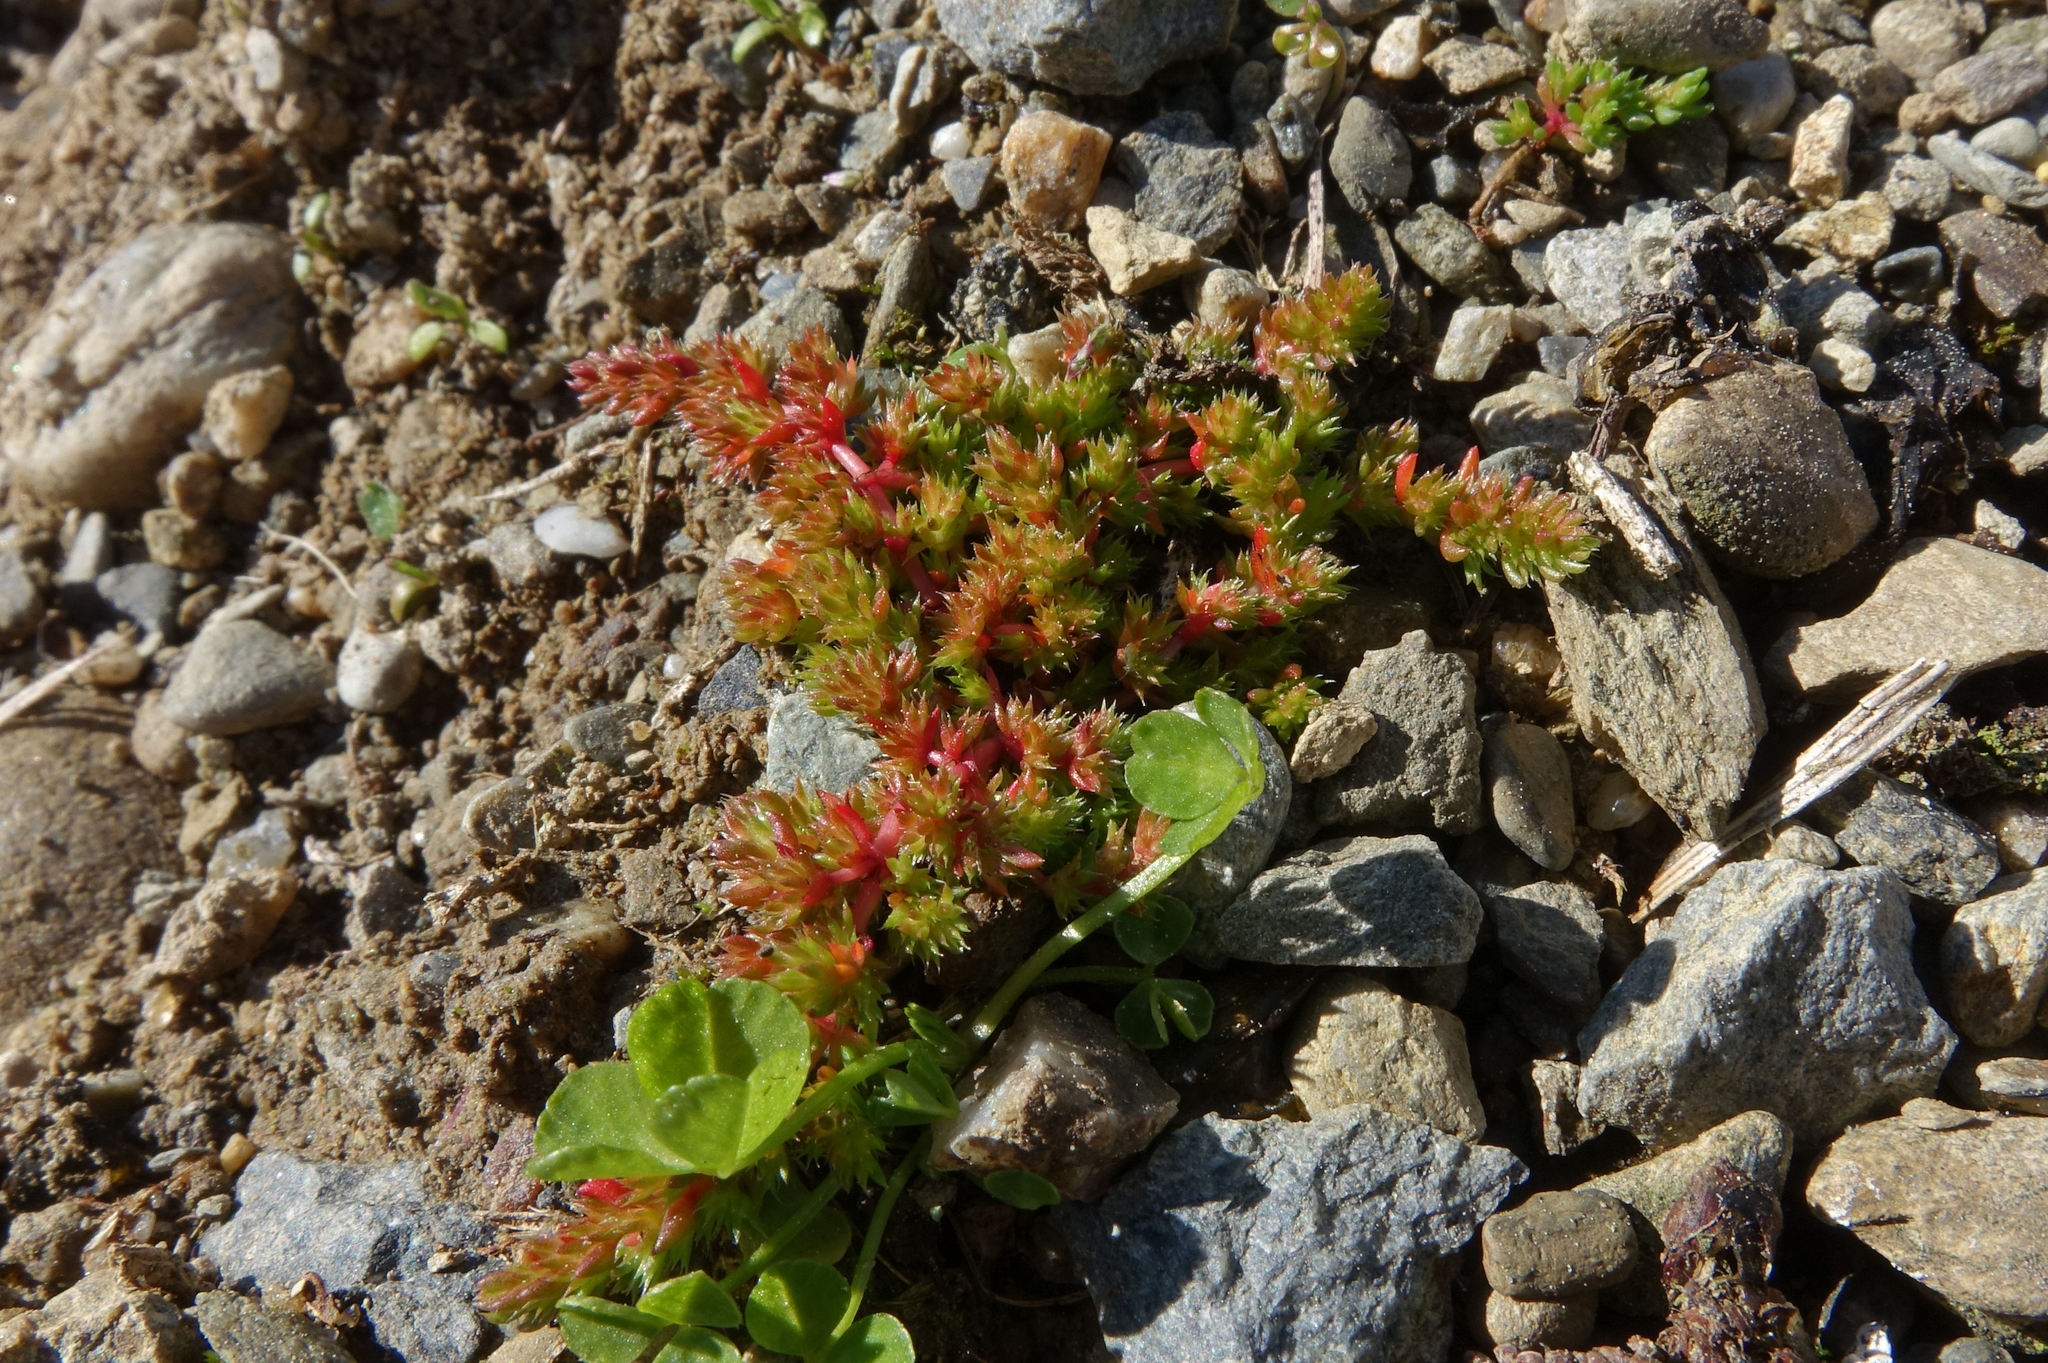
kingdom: Plantae
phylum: Tracheophyta
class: Magnoliopsida
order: Saxifragales
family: Crassulaceae
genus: Crassula
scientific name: Crassula alata
